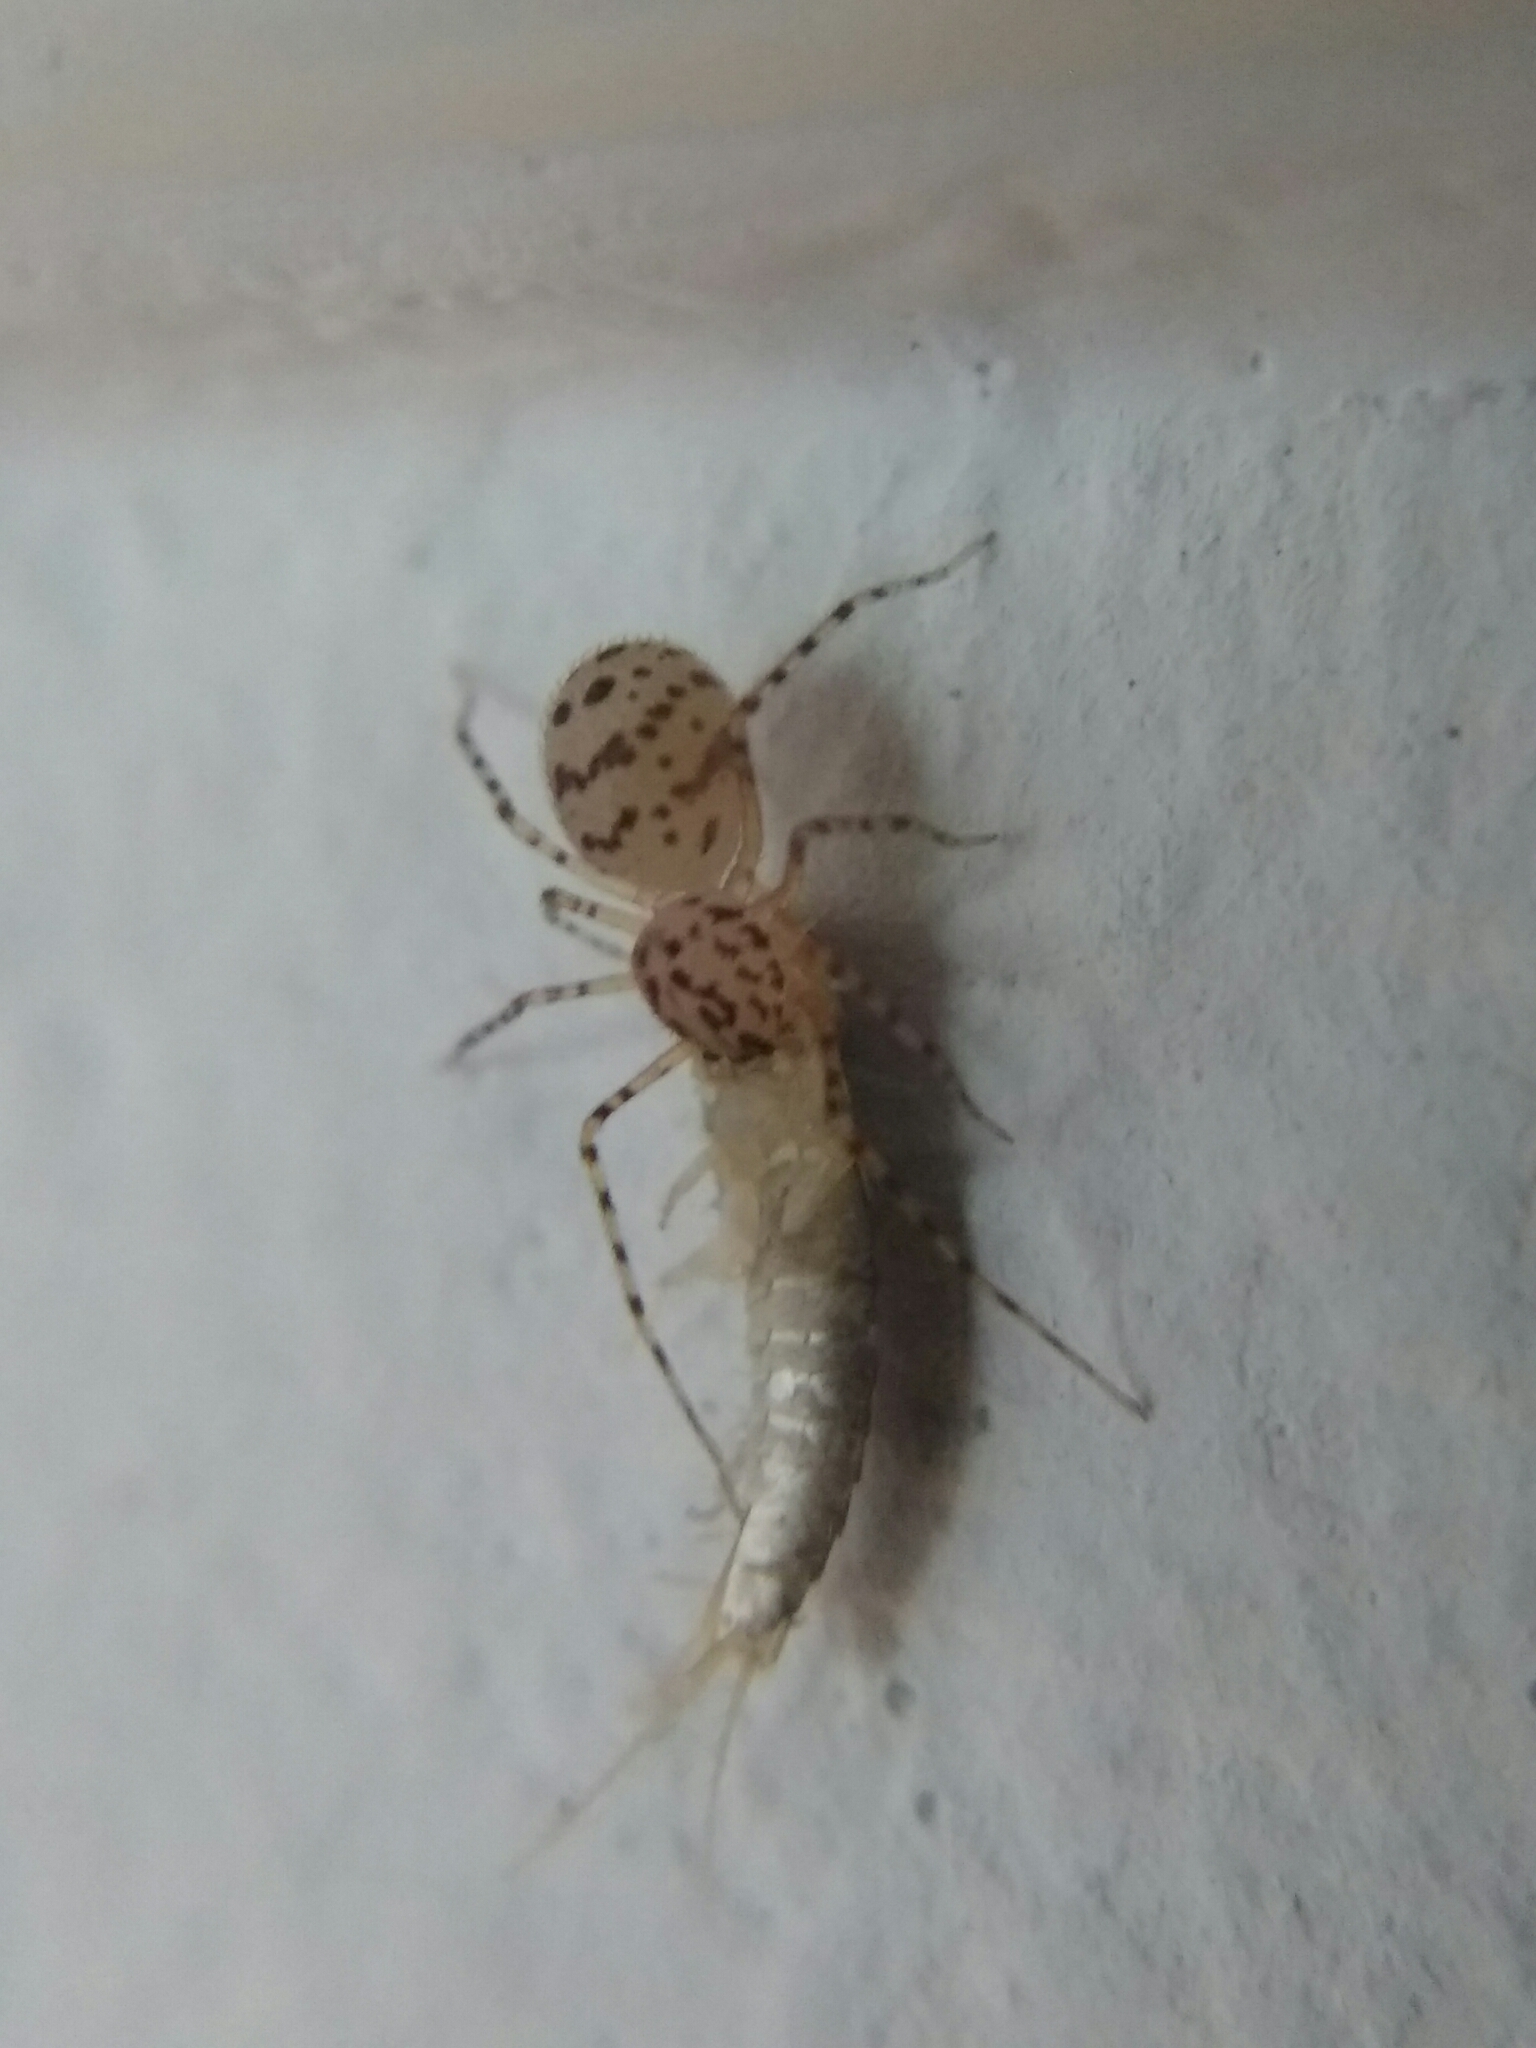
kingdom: Animalia
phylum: Arthropoda
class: Arachnida
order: Araneae
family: Scytodidae
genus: Scytodes
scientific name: Scytodes thoracica
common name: Spitting spider
